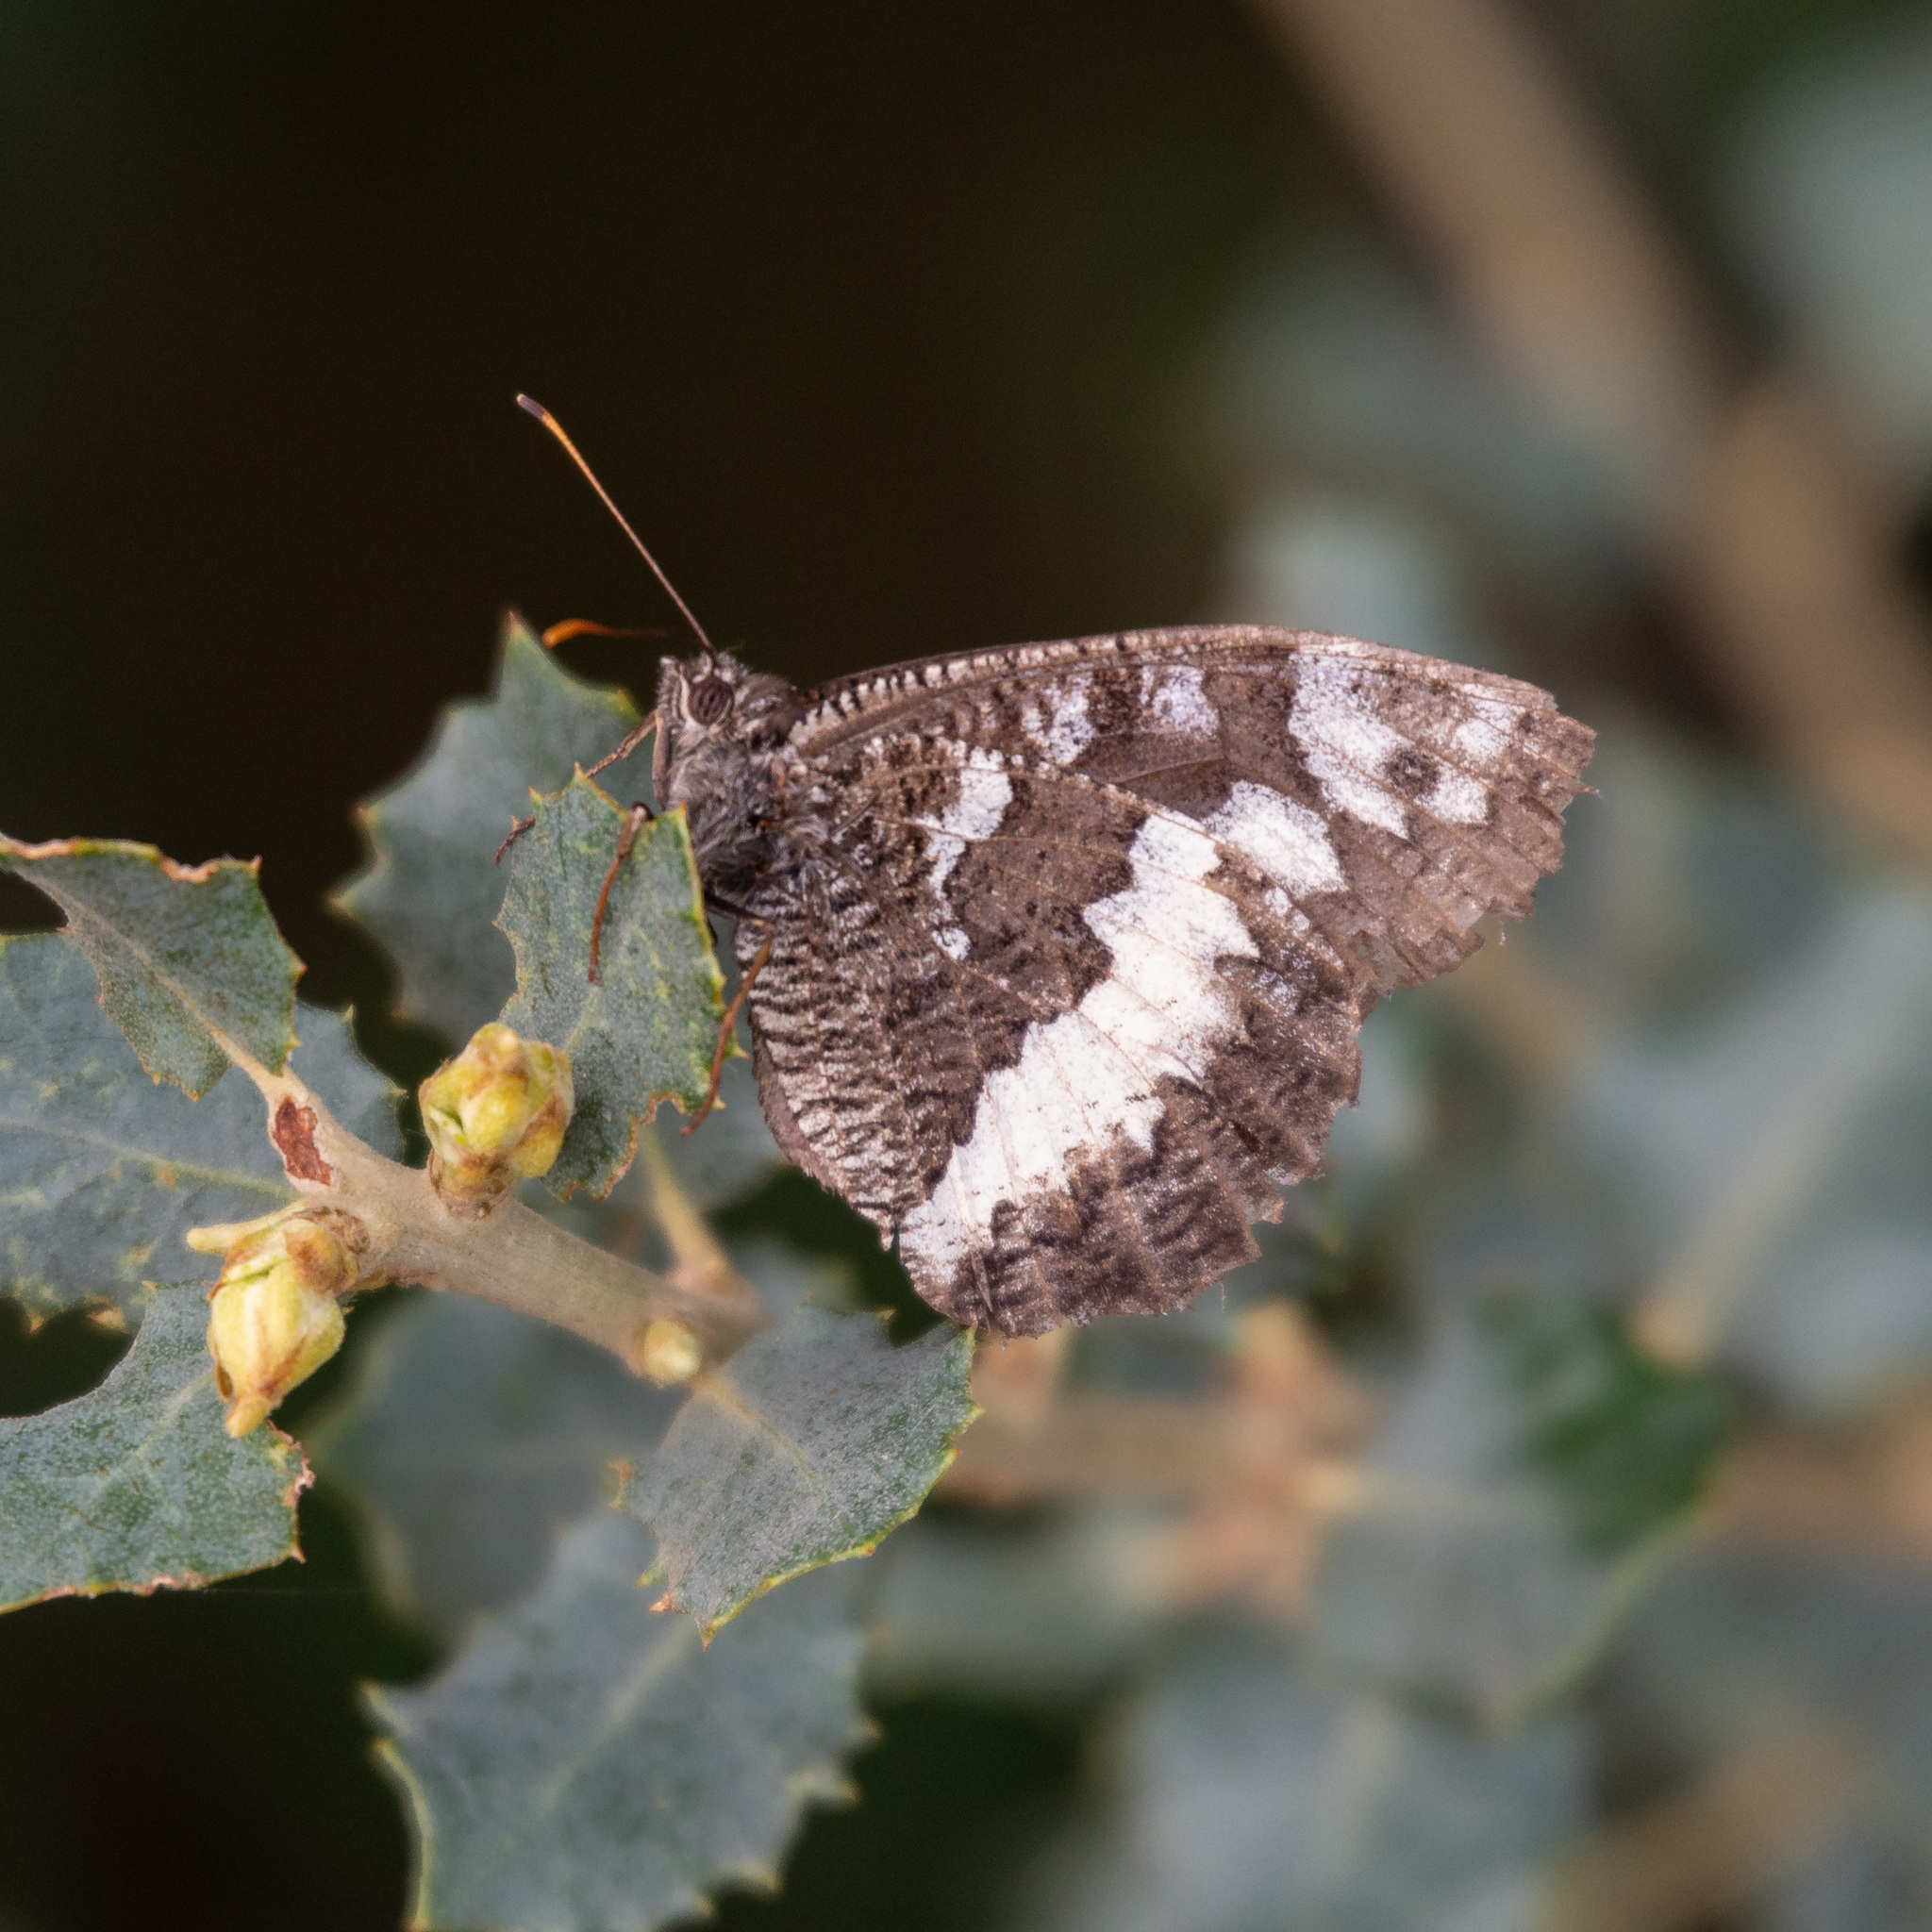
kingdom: Animalia
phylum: Arthropoda
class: Insecta
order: Lepidoptera
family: Lycaenidae
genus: Loweia
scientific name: Loweia tityrus
